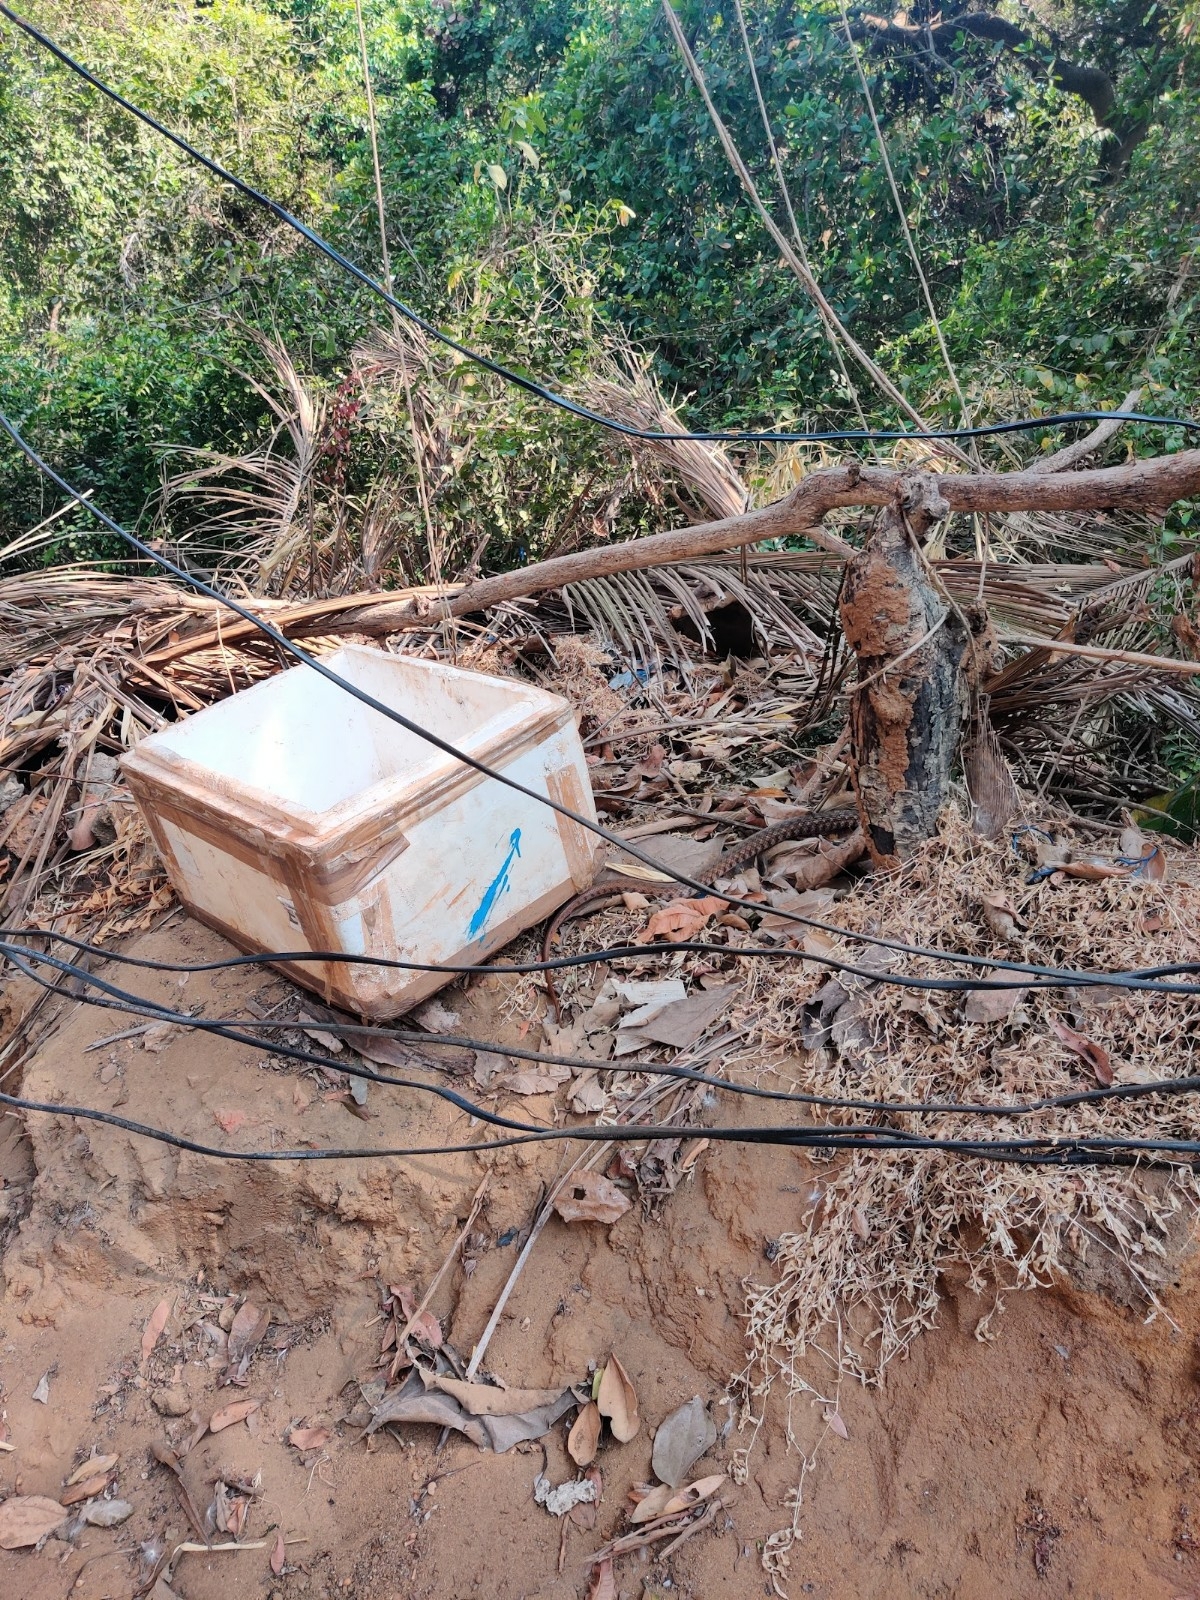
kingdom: Animalia
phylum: Chordata
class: Squamata
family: Colubridae
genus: Fowlea
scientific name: Fowlea piscator
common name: Asiatic water snake
